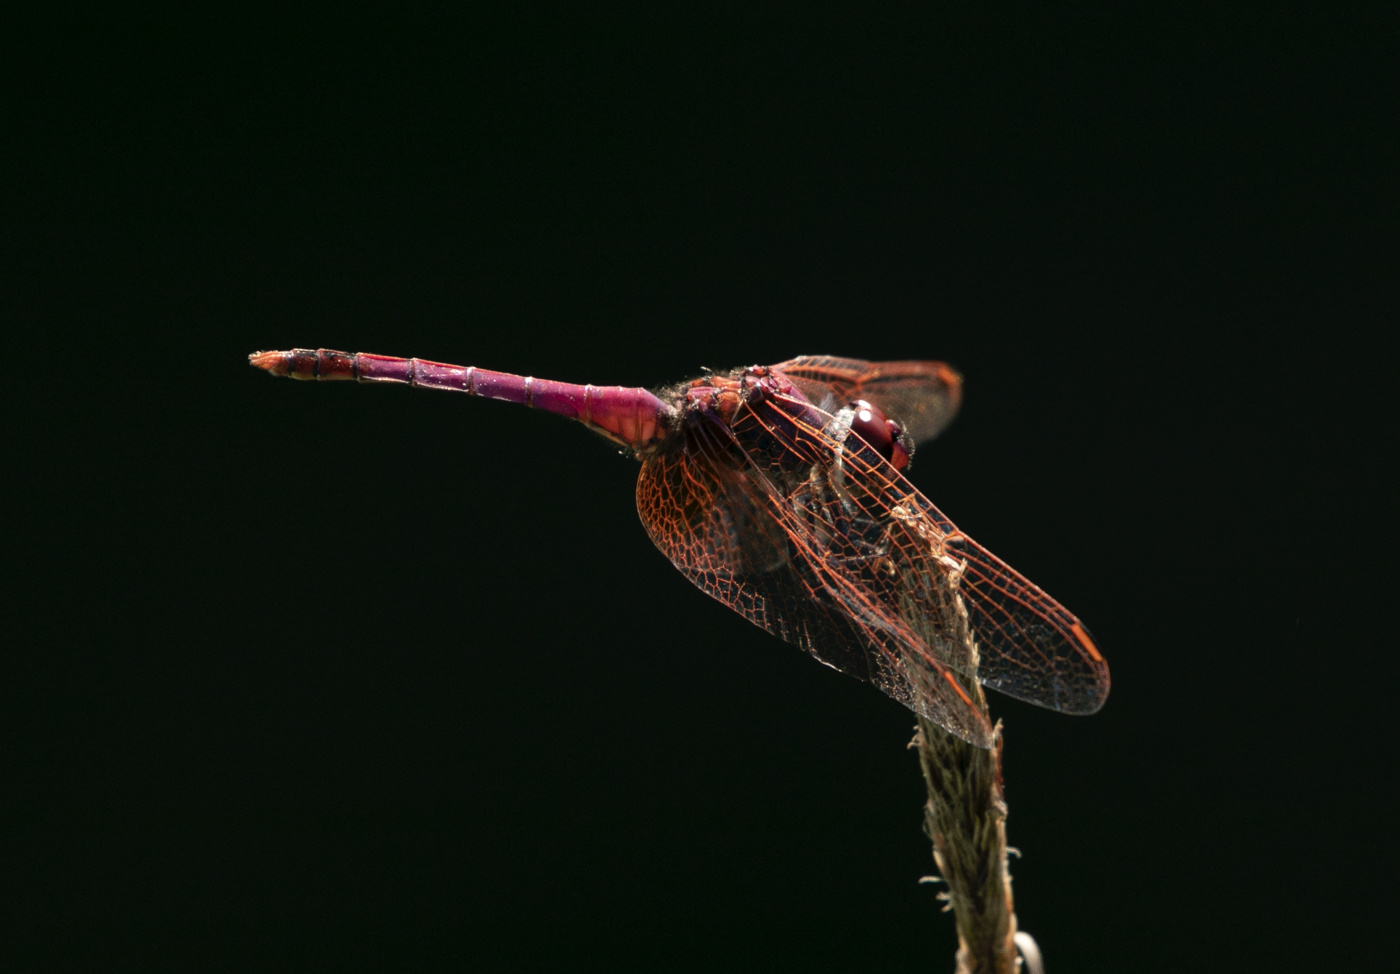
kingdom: Animalia
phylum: Arthropoda
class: Insecta
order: Odonata
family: Libellulidae
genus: Trithemis
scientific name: Trithemis annulata
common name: Violet dropwing
